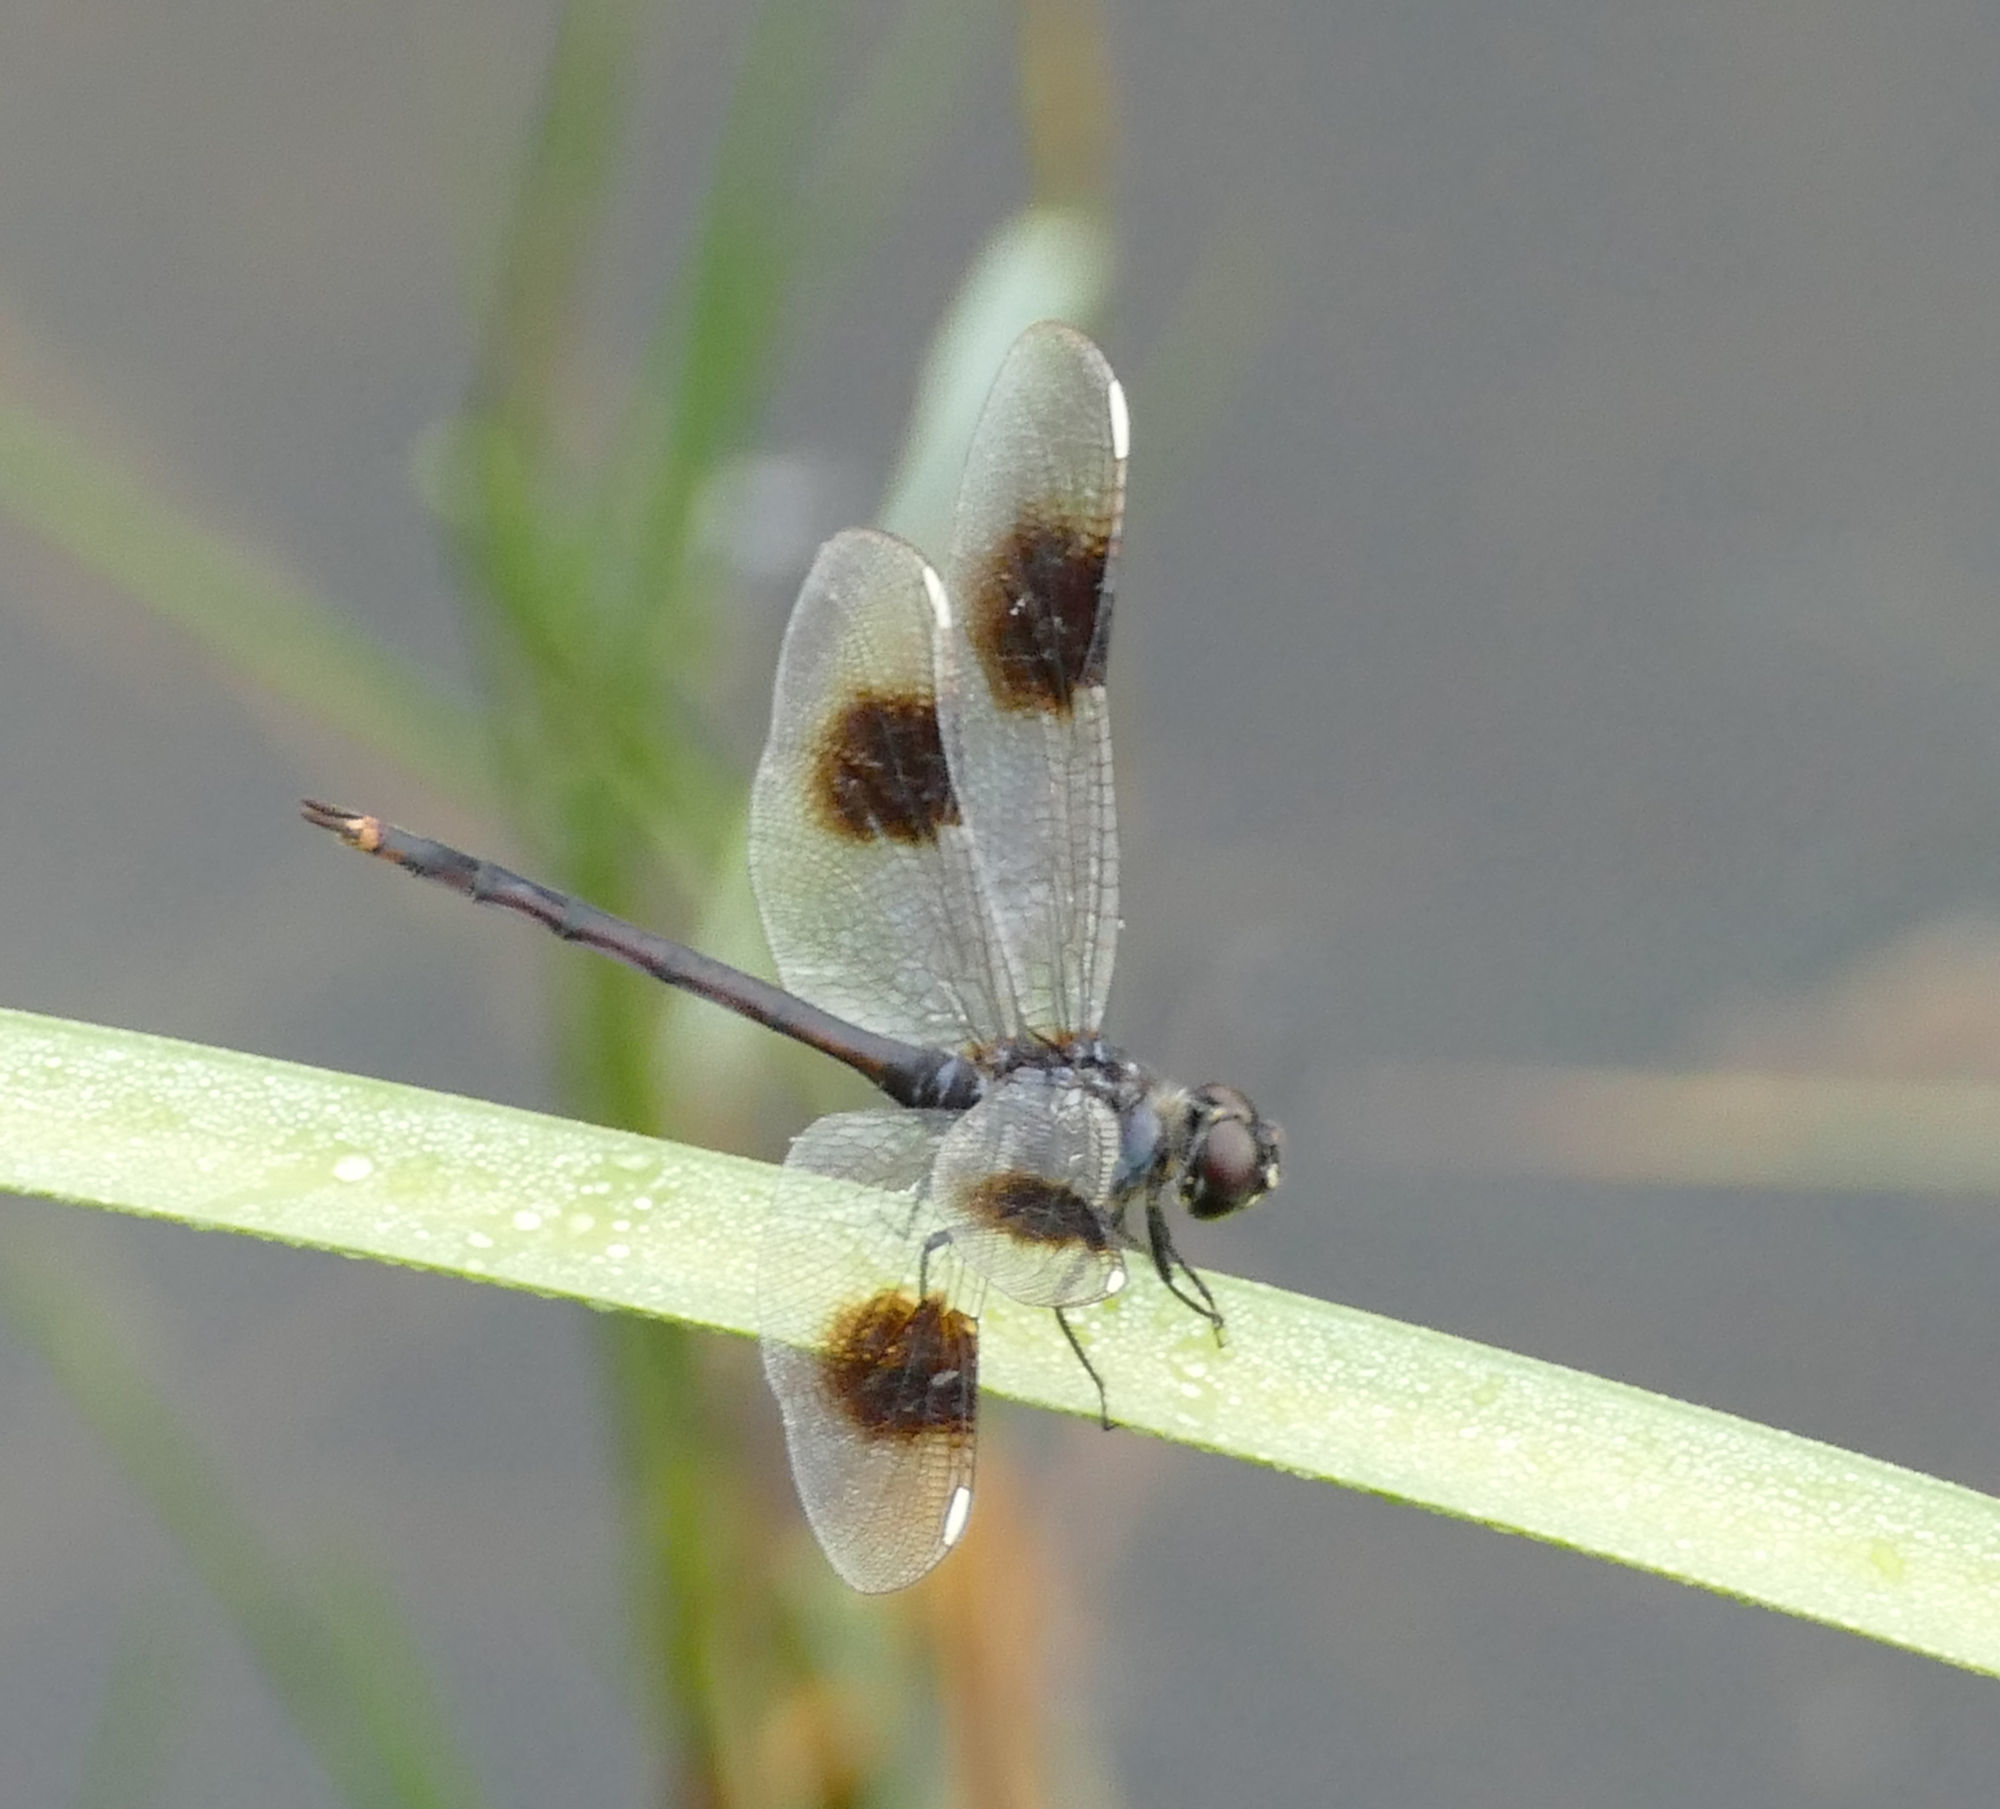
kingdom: Animalia
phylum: Arthropoda
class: Insecta
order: Odonata
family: Libellulidae
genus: Brachymesia
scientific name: Brachymesia gravida
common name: Four-spotted pennant
